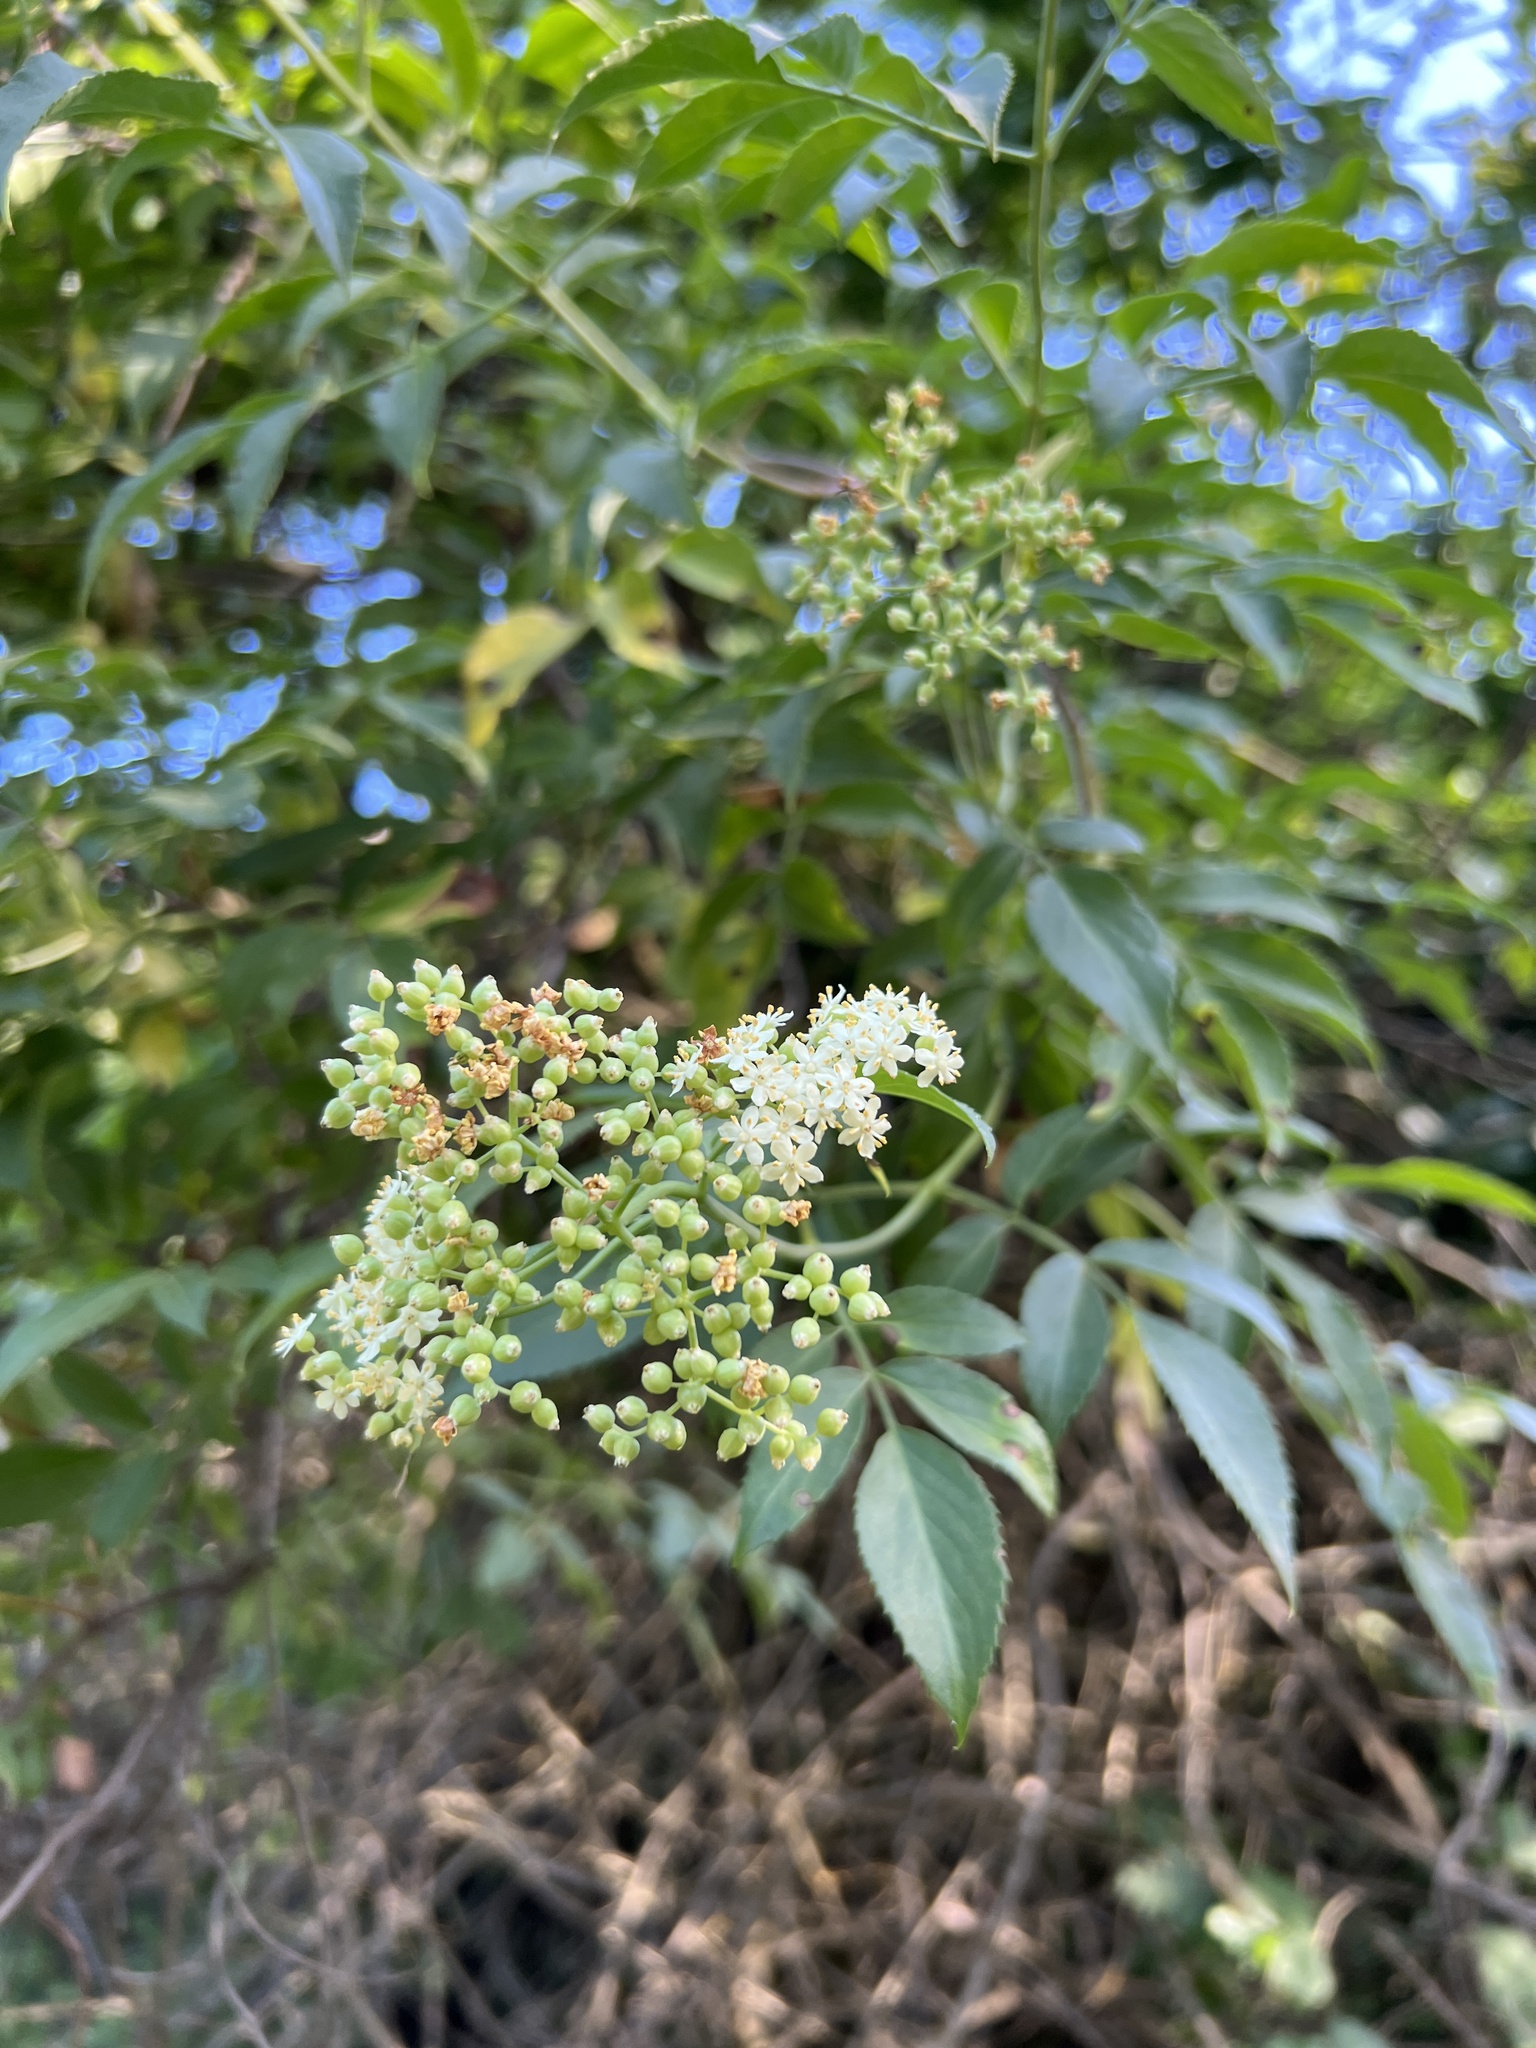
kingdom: Plantae
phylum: Tracheophyta
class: Magnoliopsida
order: Dipsacales
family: Viburnaceae
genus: Sambucus
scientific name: Sambucus cerulea
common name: Blue elder
